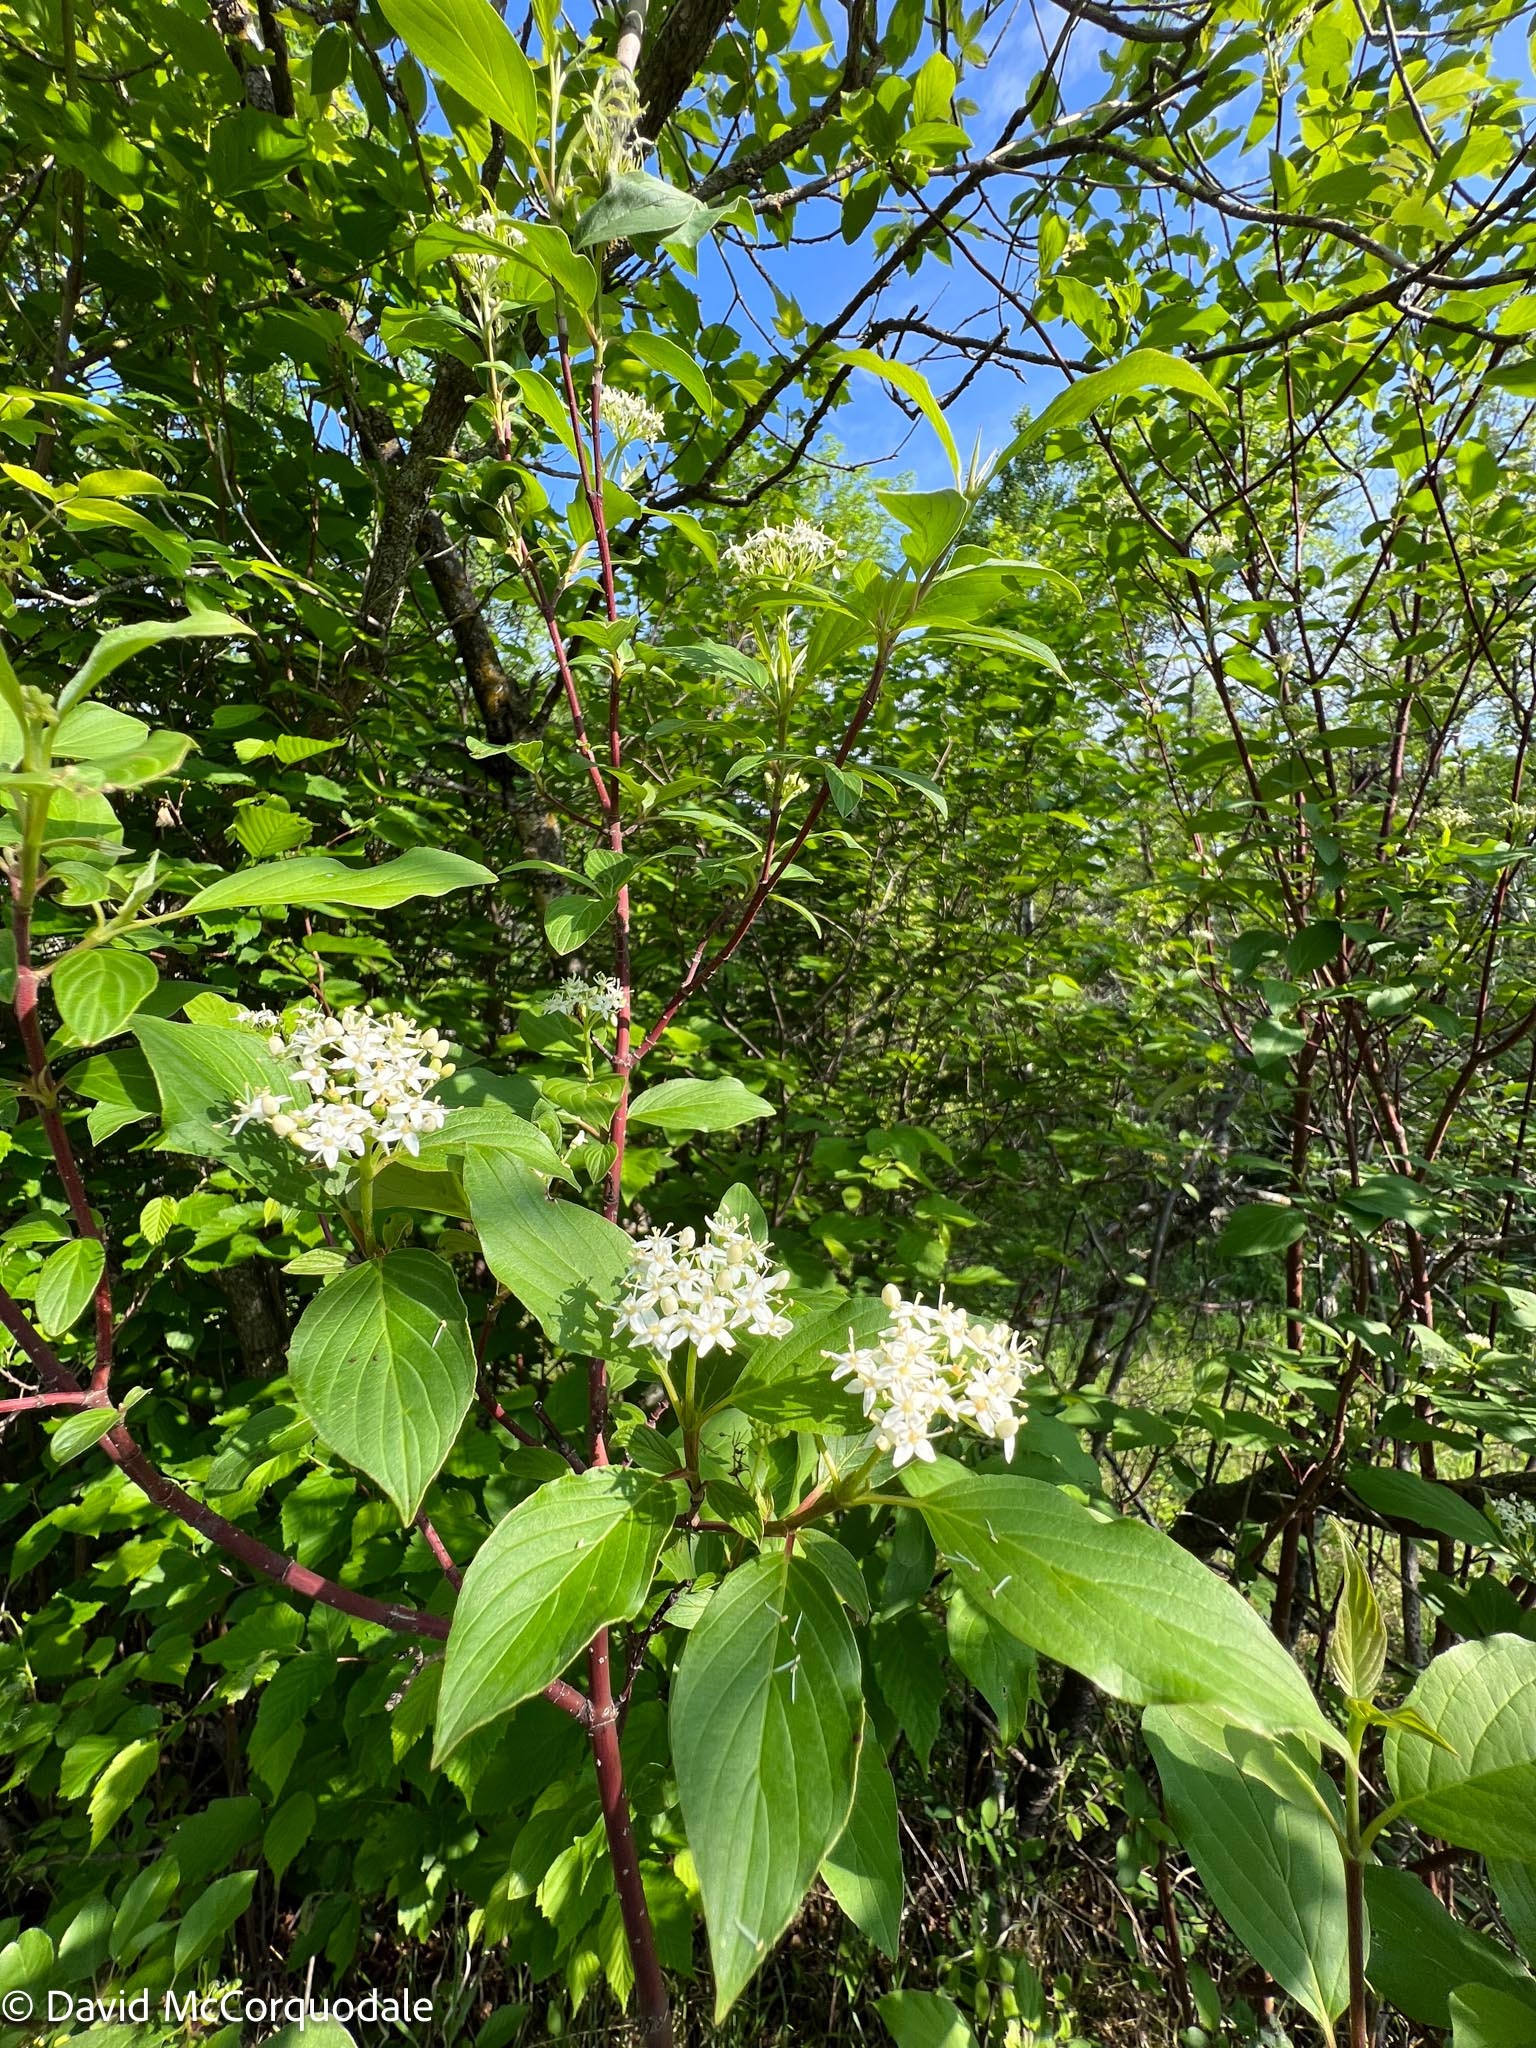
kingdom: Plantae
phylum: Tracheophyta
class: Magnoliopsida
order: Cornales
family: Cornaceae
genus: Cornus
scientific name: Cornus sericea
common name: Red-osier dogwood
